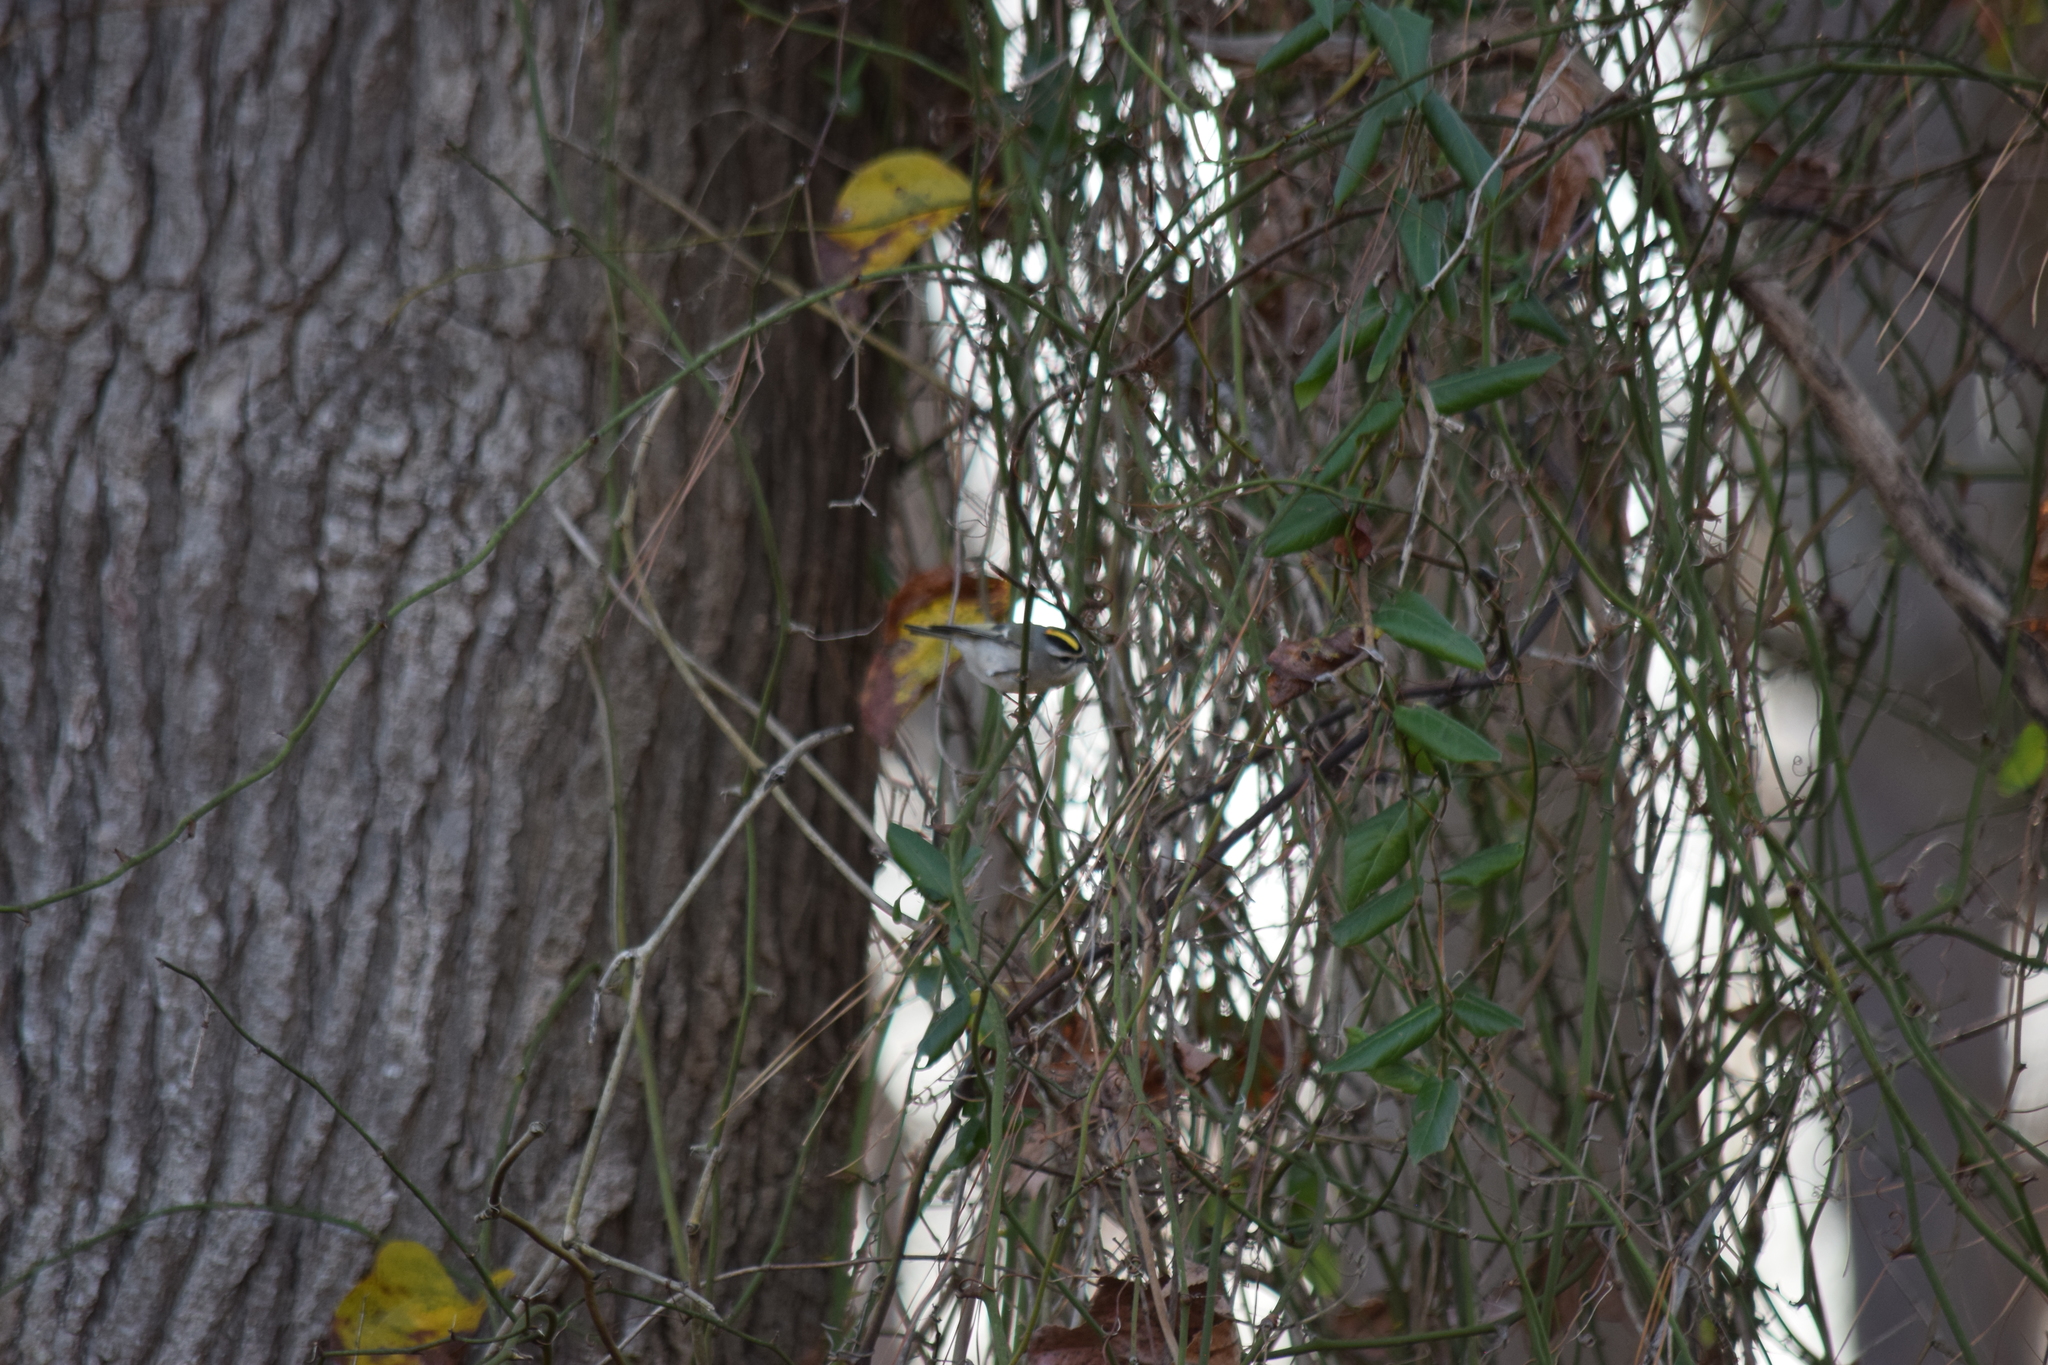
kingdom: Animalia
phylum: Chordata
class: Aves
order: Passeriformes
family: Regulidae
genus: Regulus
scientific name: Regulus satrapa
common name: Golden-crowned kinglet
